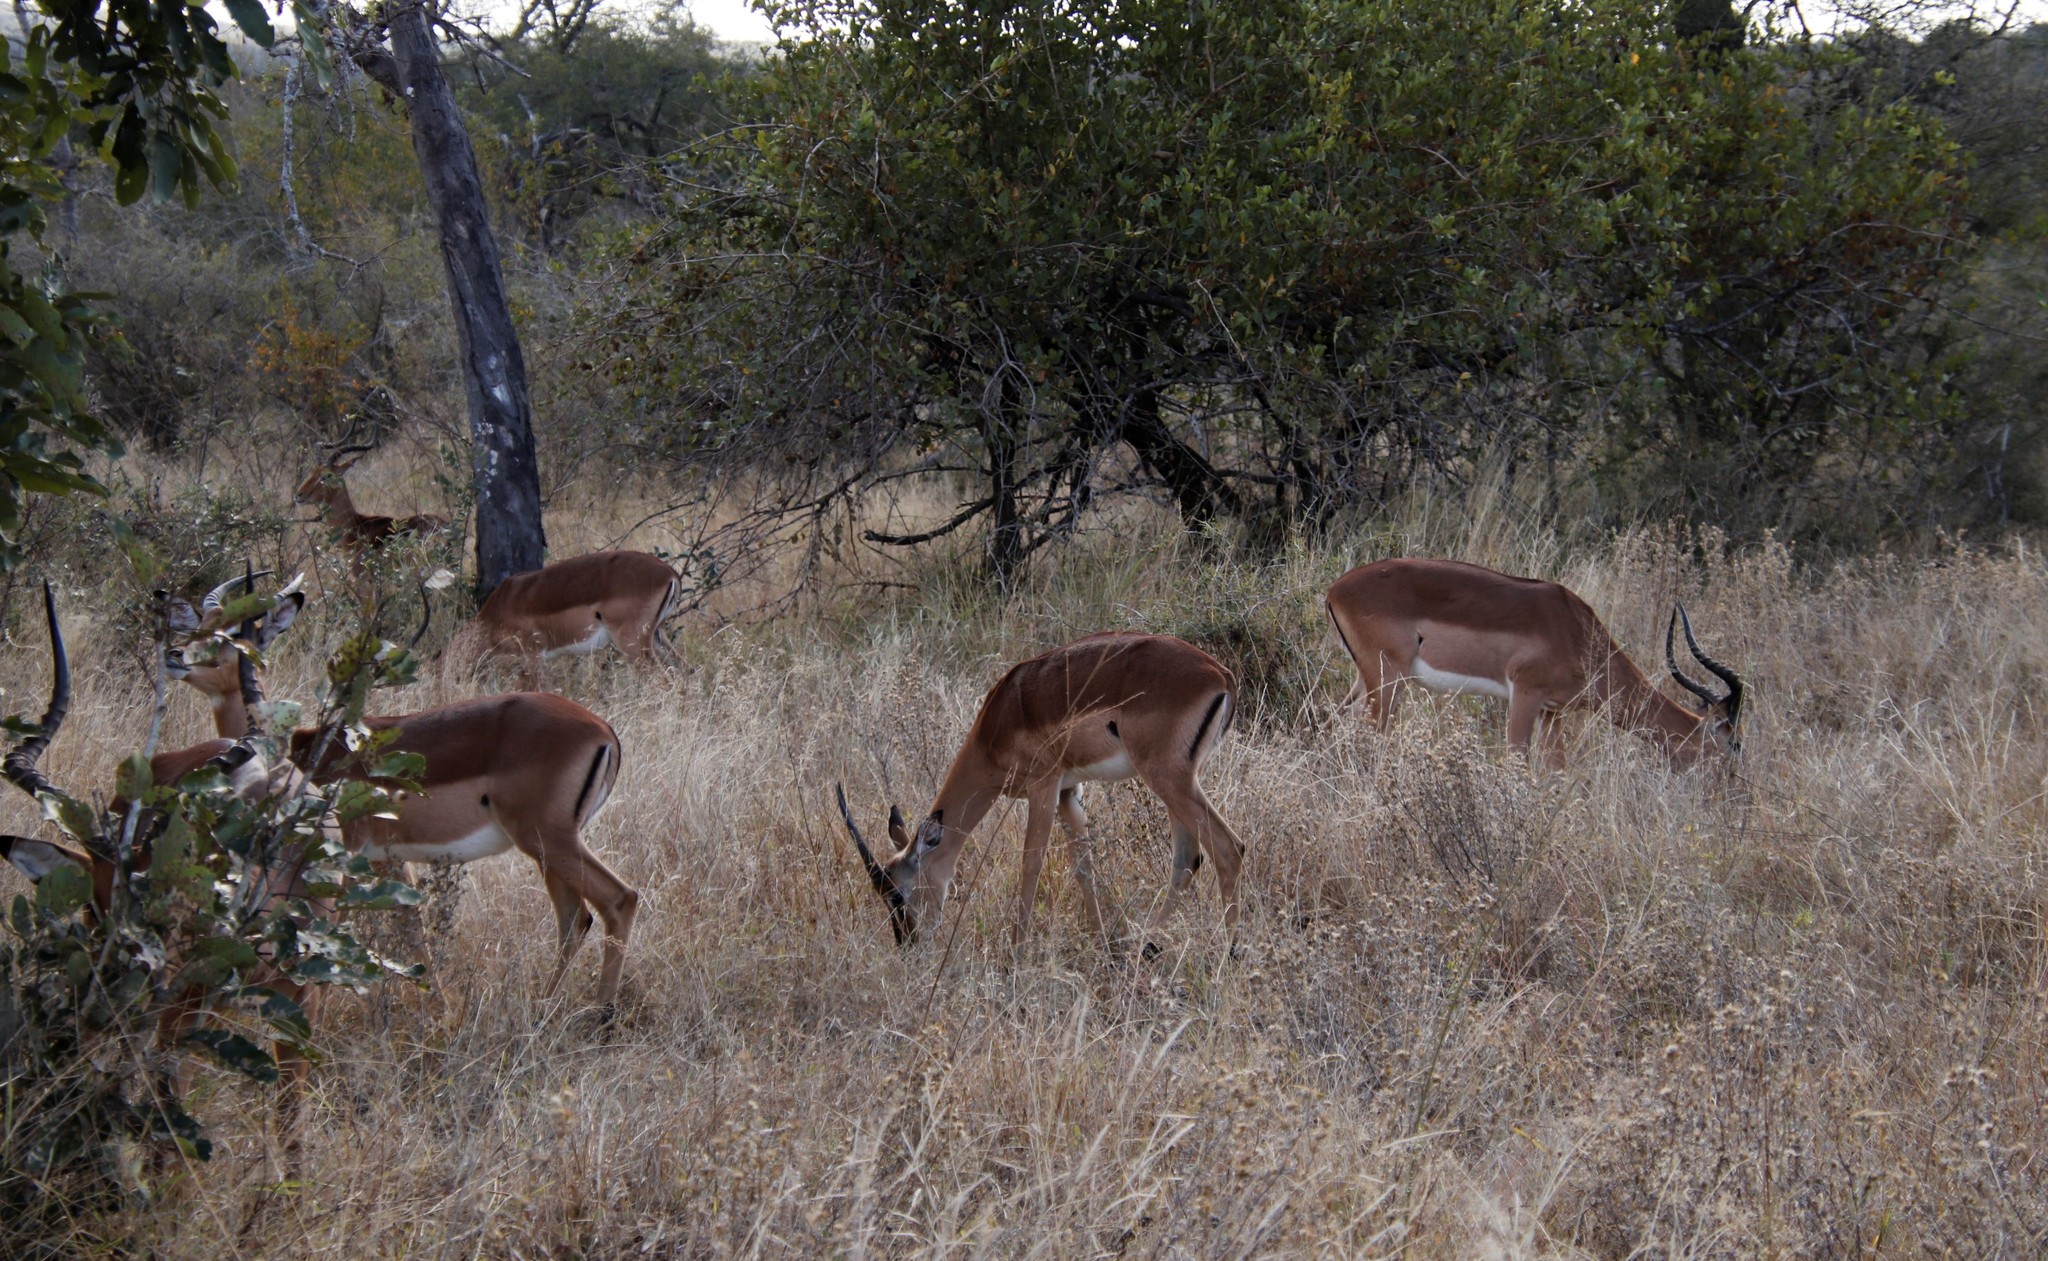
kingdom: Animalia
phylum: Chordata
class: Mammalia
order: Artiodactyla
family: Bovidae
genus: Aepyceros
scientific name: Aepyceros melampus
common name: Impala
